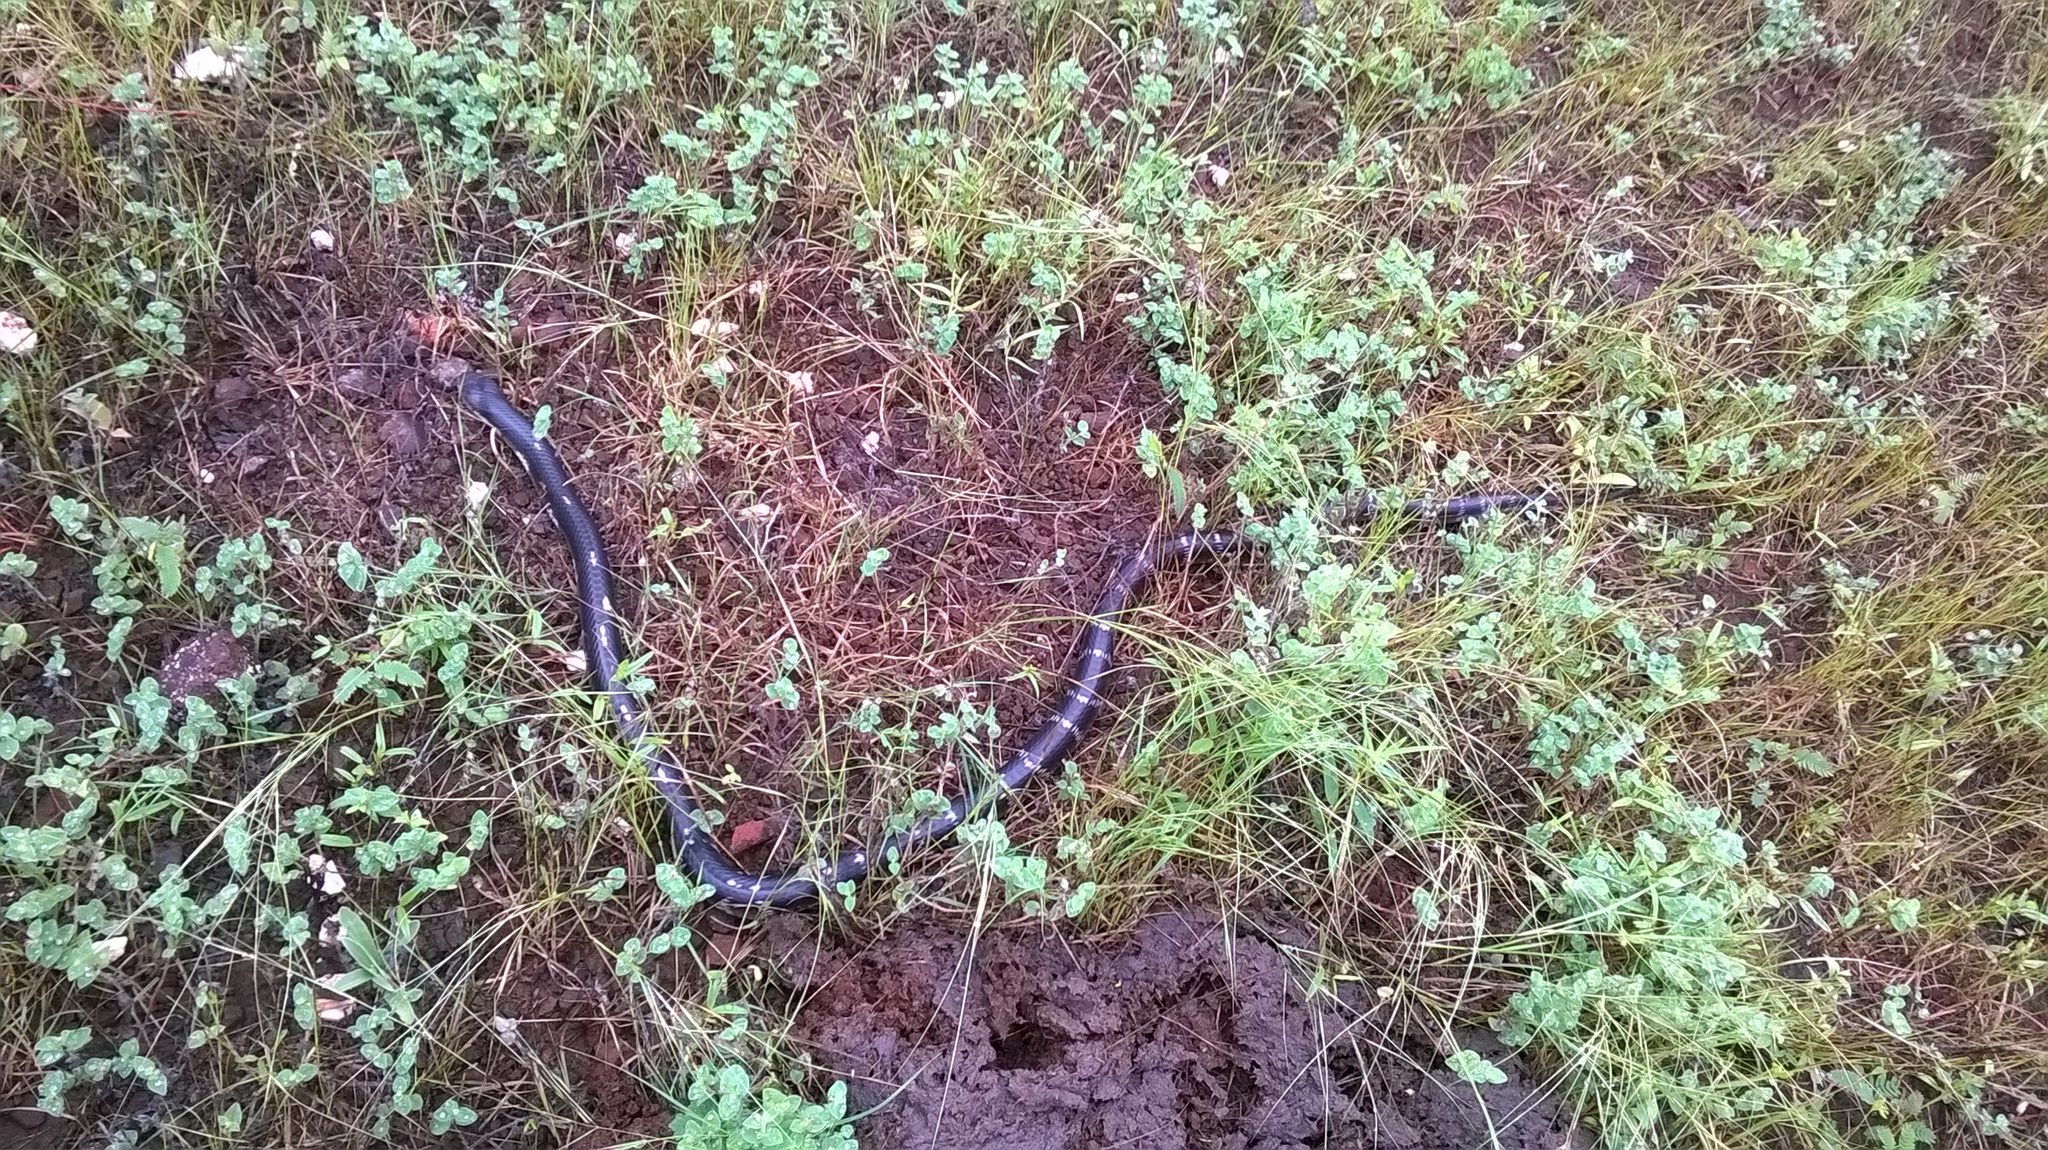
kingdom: Animalia
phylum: Chordata
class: Squamata
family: Elapidae
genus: Bungarus
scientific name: Bungarus caeruleus
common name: Common krait
